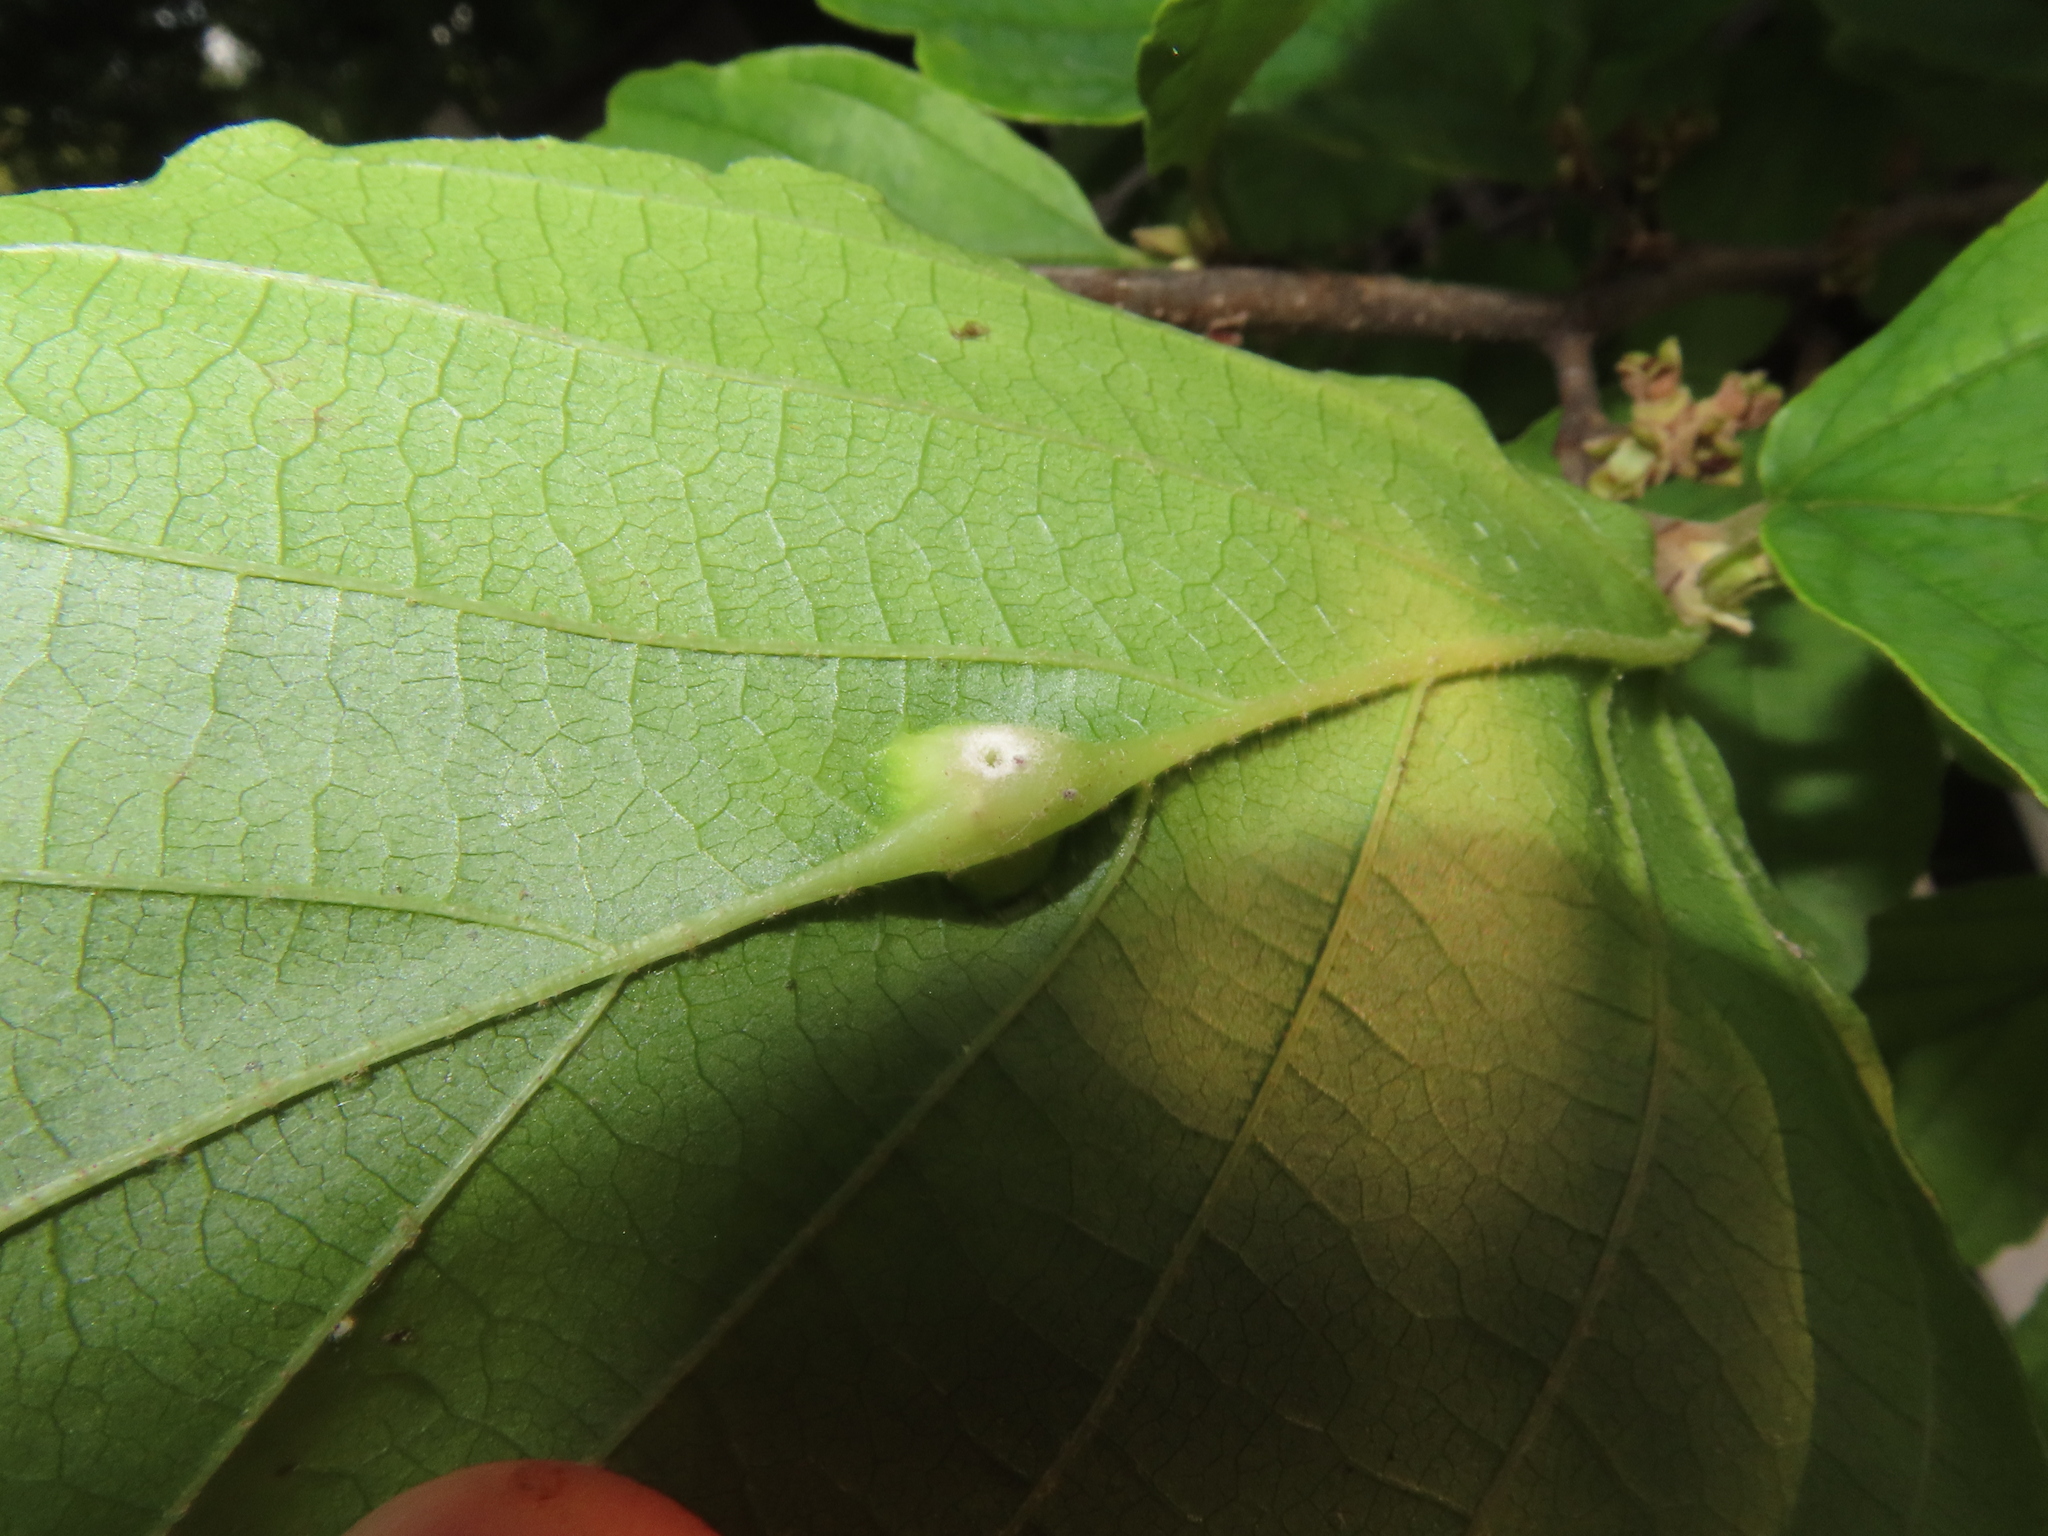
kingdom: Animalia
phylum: Arthropoda
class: Insecta
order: Hemiptera
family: Aphididae
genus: Hormaphis
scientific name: Hormaphis hamamelidis
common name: Witch-hazel cone gall aphid
